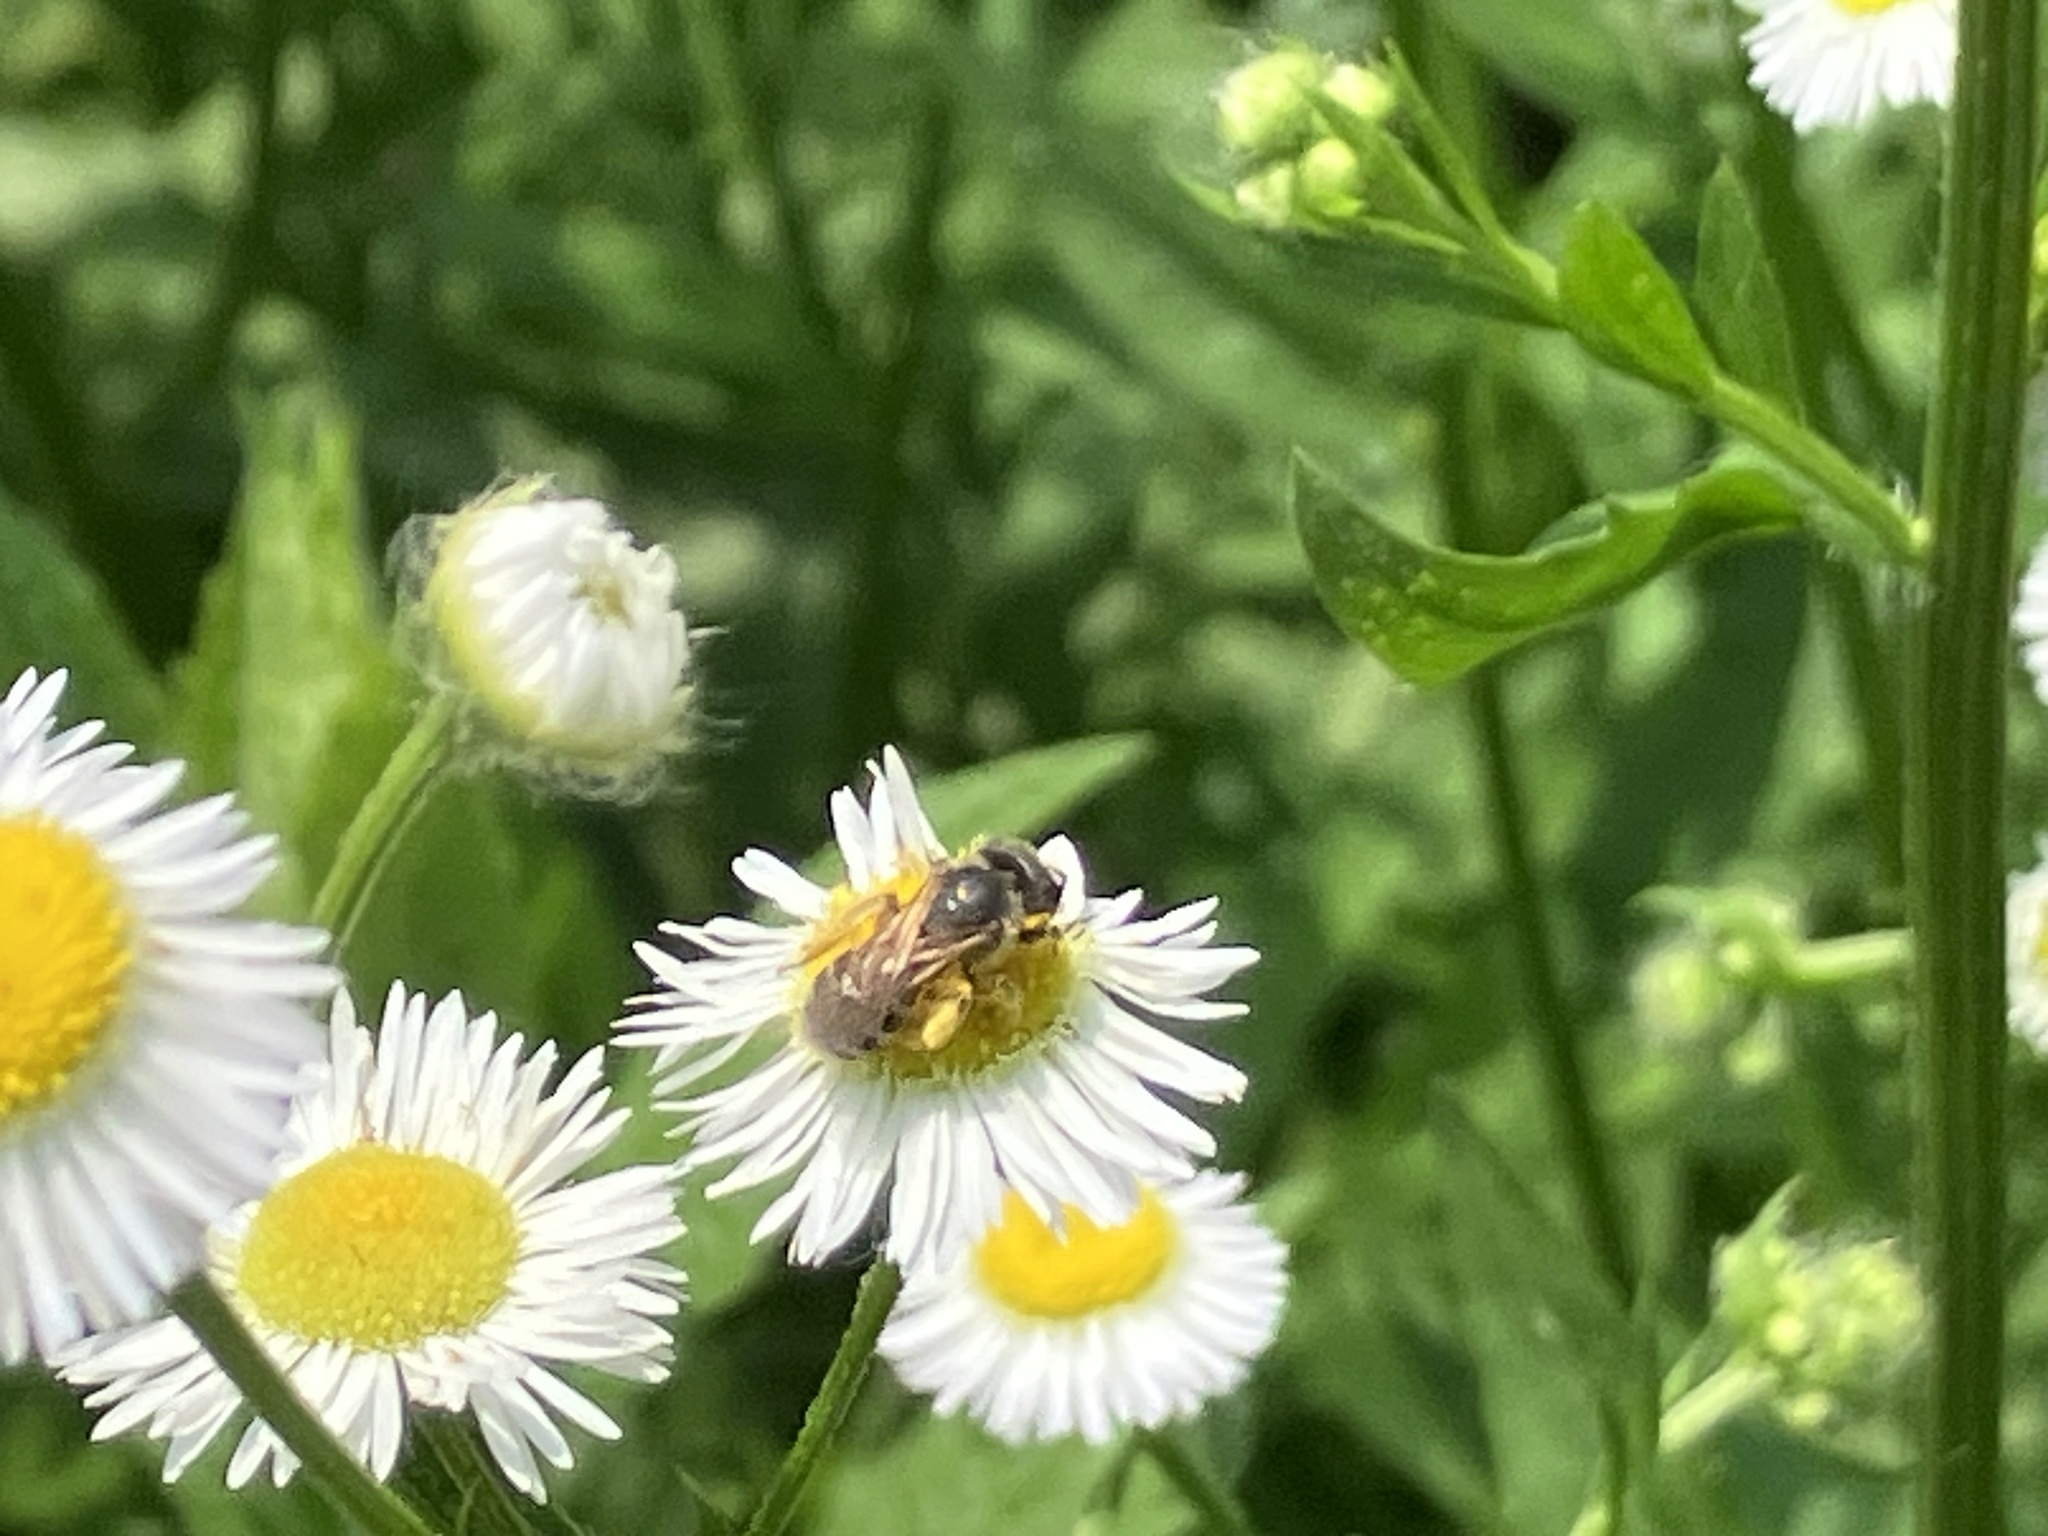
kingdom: Animalia
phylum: Arthropoda
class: Insecta
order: Hymenoptera
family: Halictidae
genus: Halictus
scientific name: Halictus ligatus
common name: Ligated furrow bee
